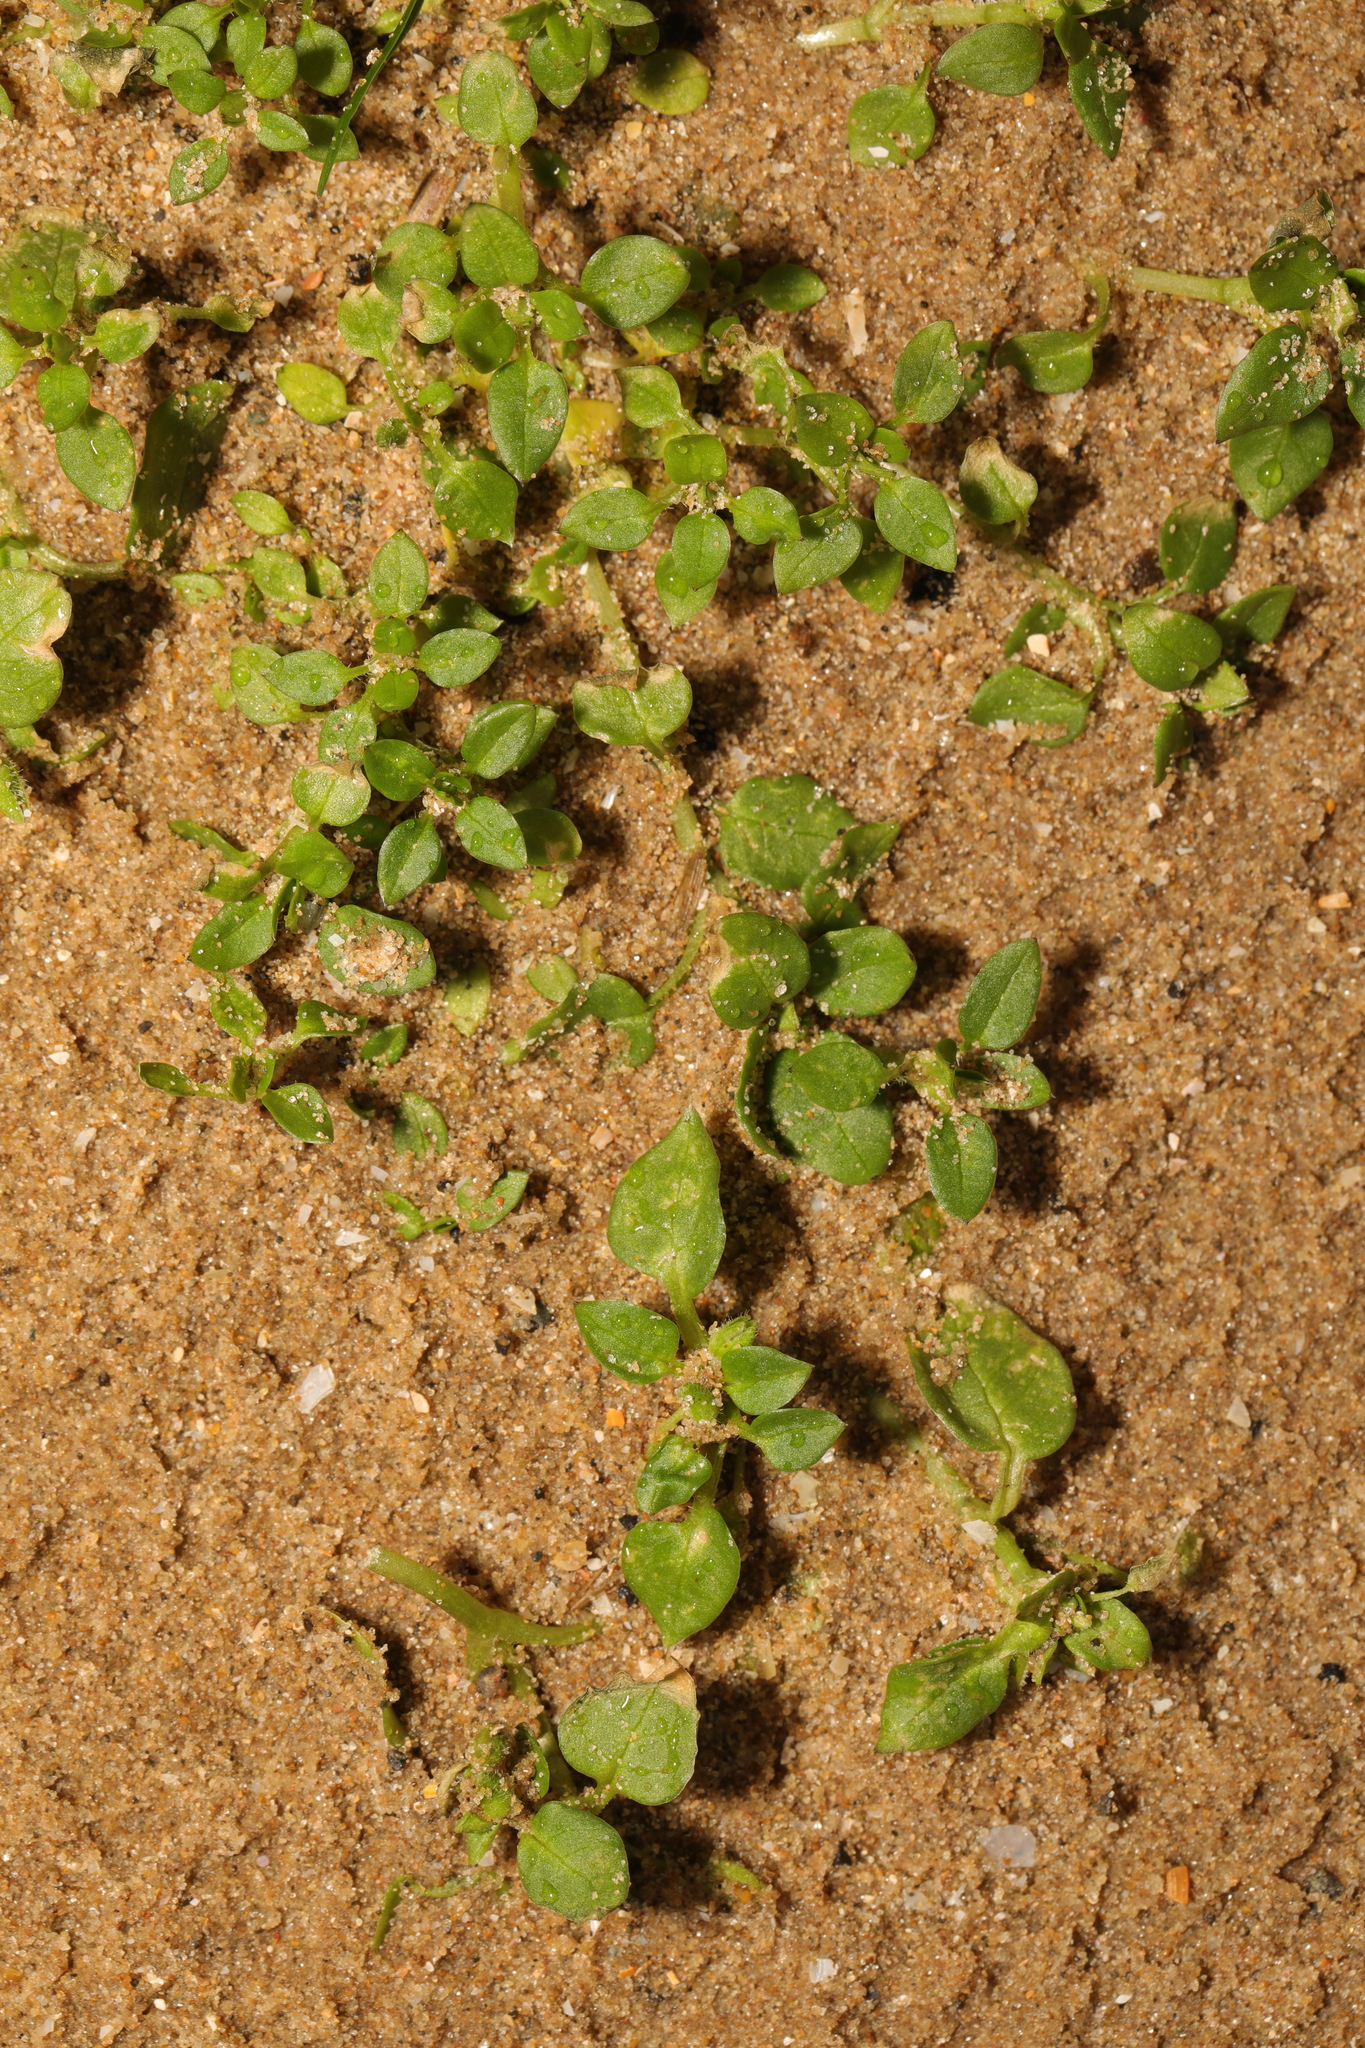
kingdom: Plantae
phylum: Tracheophyta
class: Magnoliopsida
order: Caryophyllales
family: Caryophyllaceae
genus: Stellaria
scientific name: Stellaria media
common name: Common chickweed
